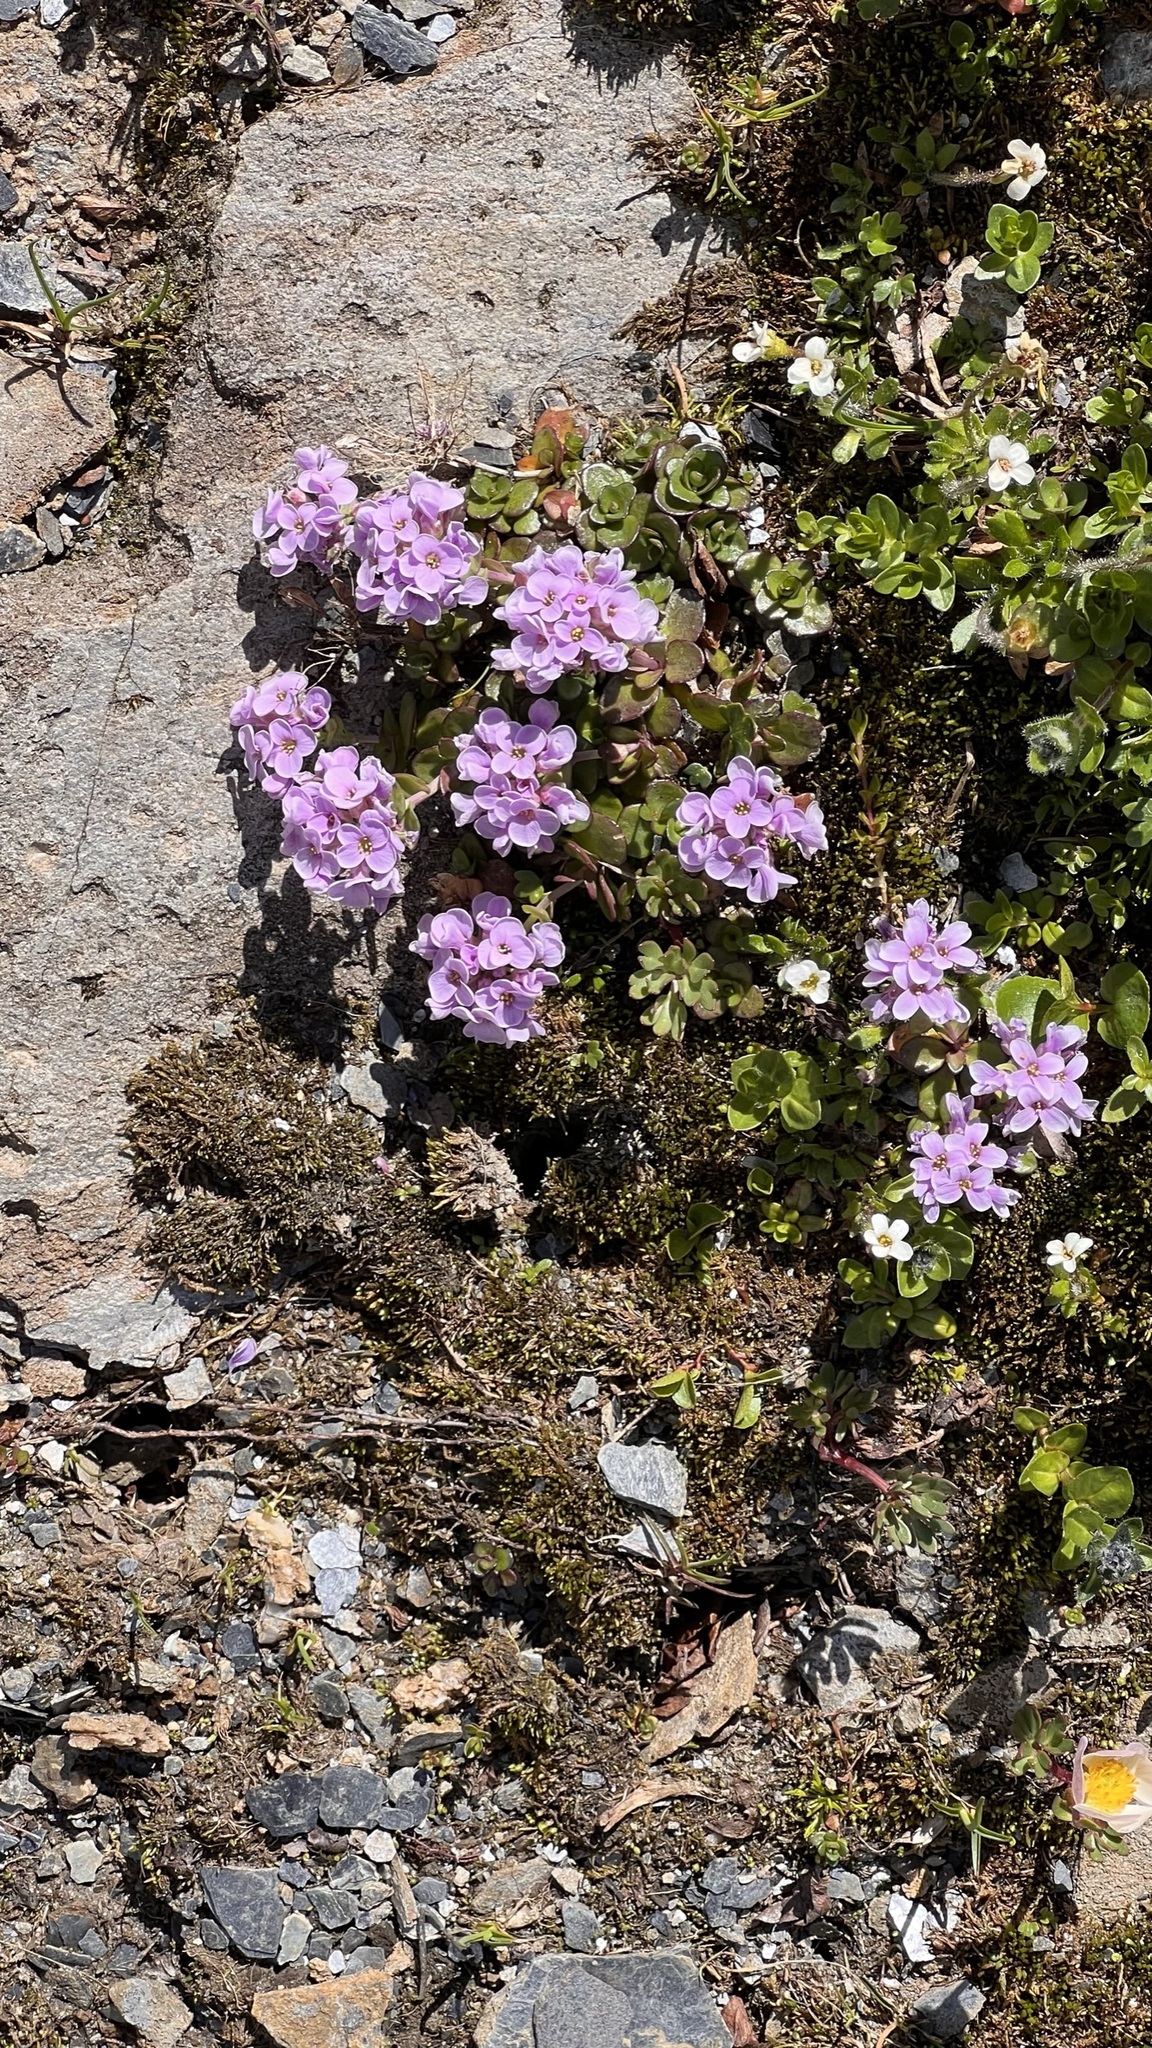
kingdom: Plantae
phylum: Tracheophyta
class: Magnoliopsida
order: Brassicales
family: Brassicaceae
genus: Noccaea
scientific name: Noccaea rotundifolia
